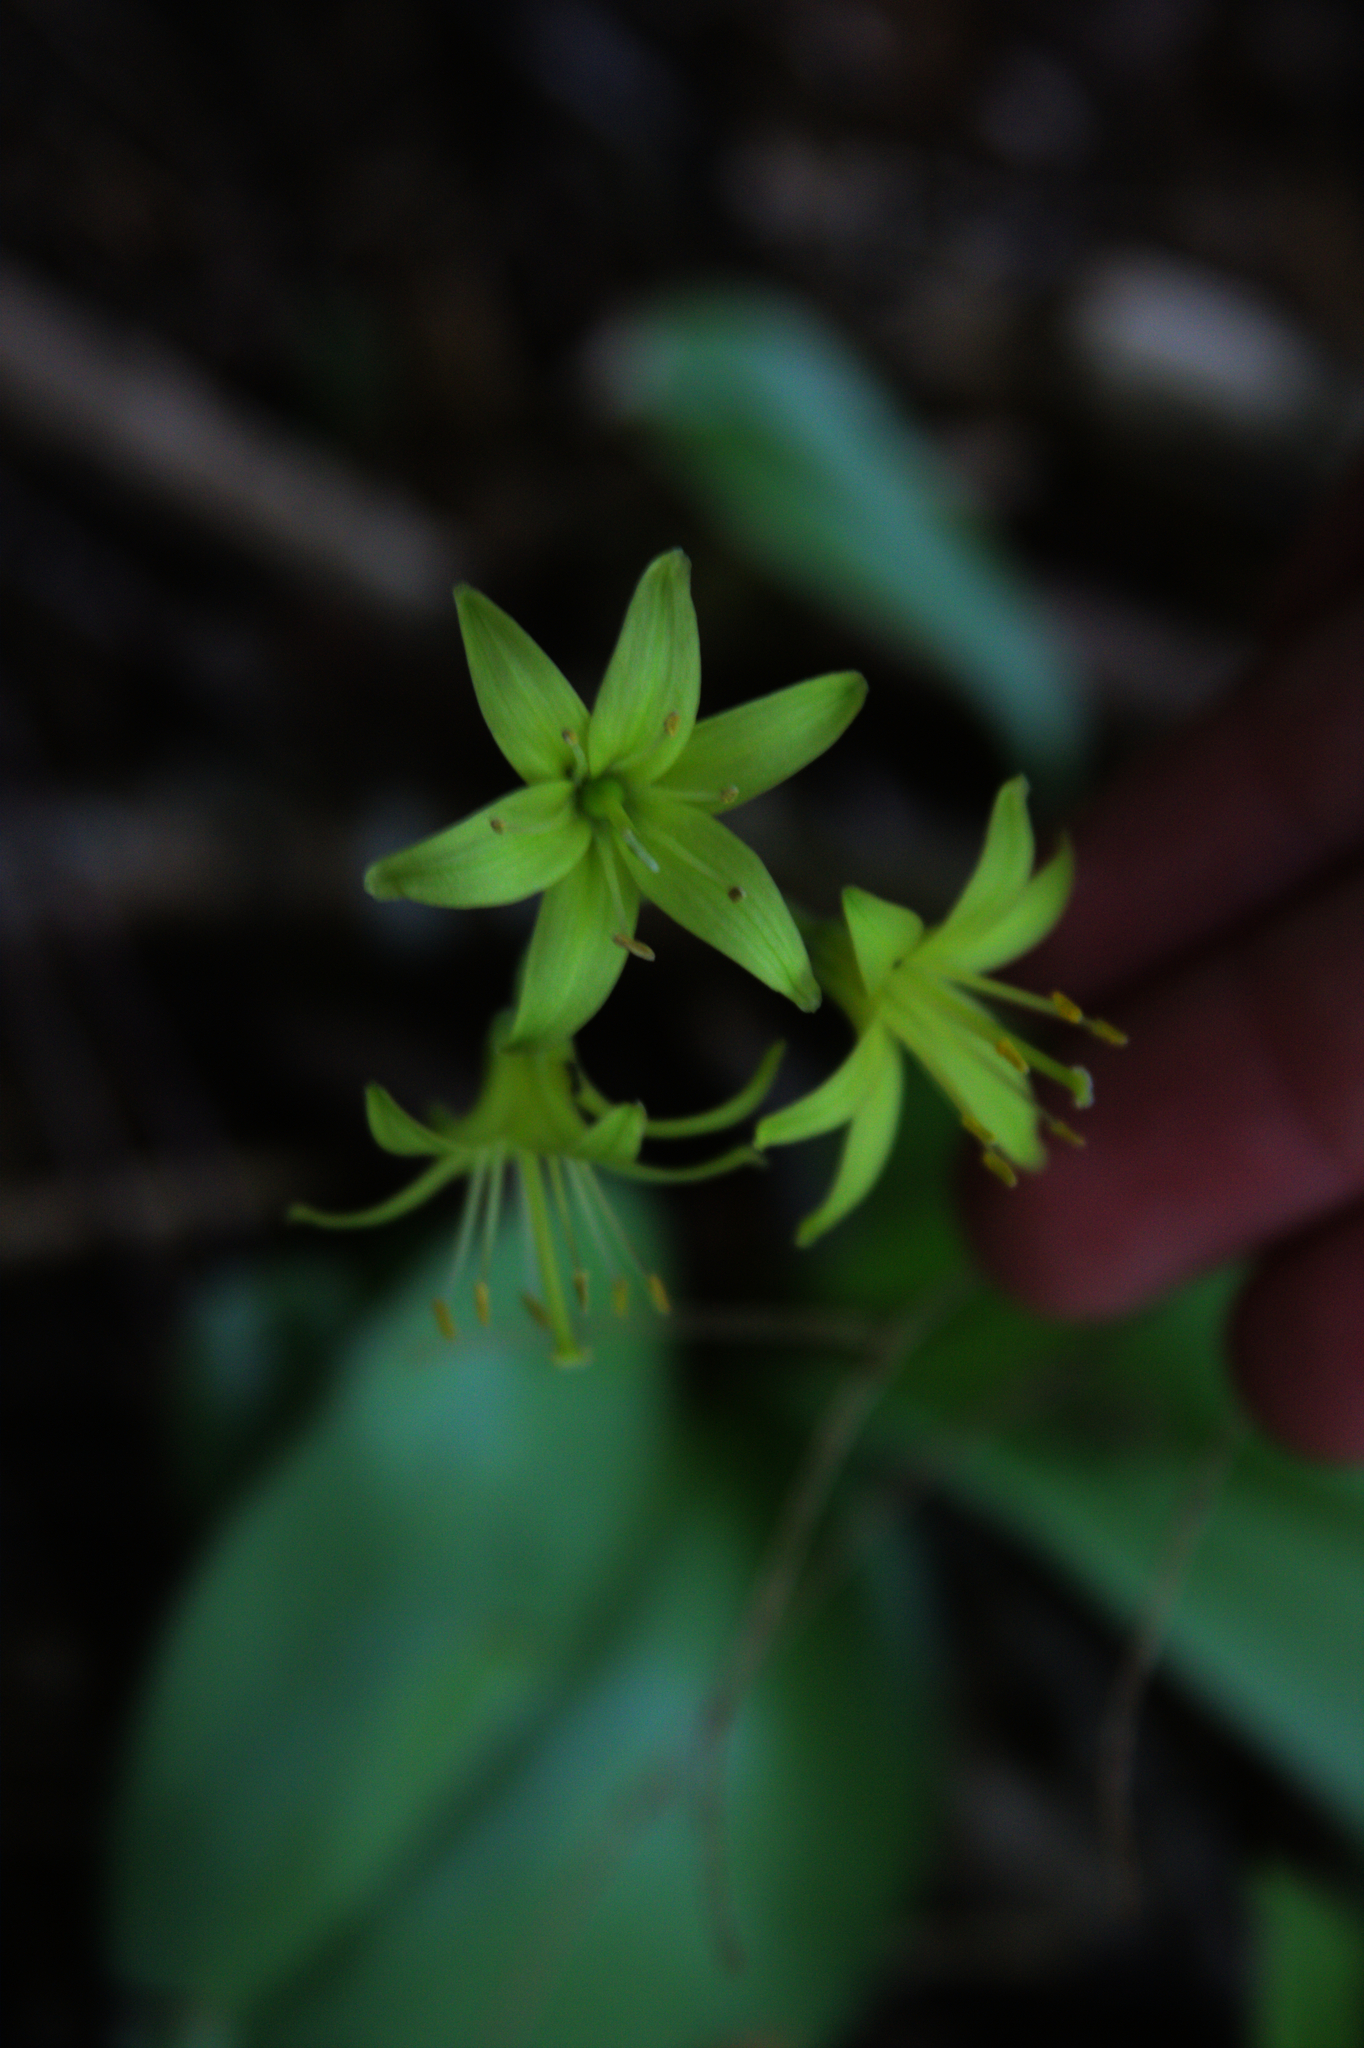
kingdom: Plantae
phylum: Tracheophyta
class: Liliopsida
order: Liliales
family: Liliaceae
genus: Clintonia
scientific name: Clintonia borealis
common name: Yellow clintonia
